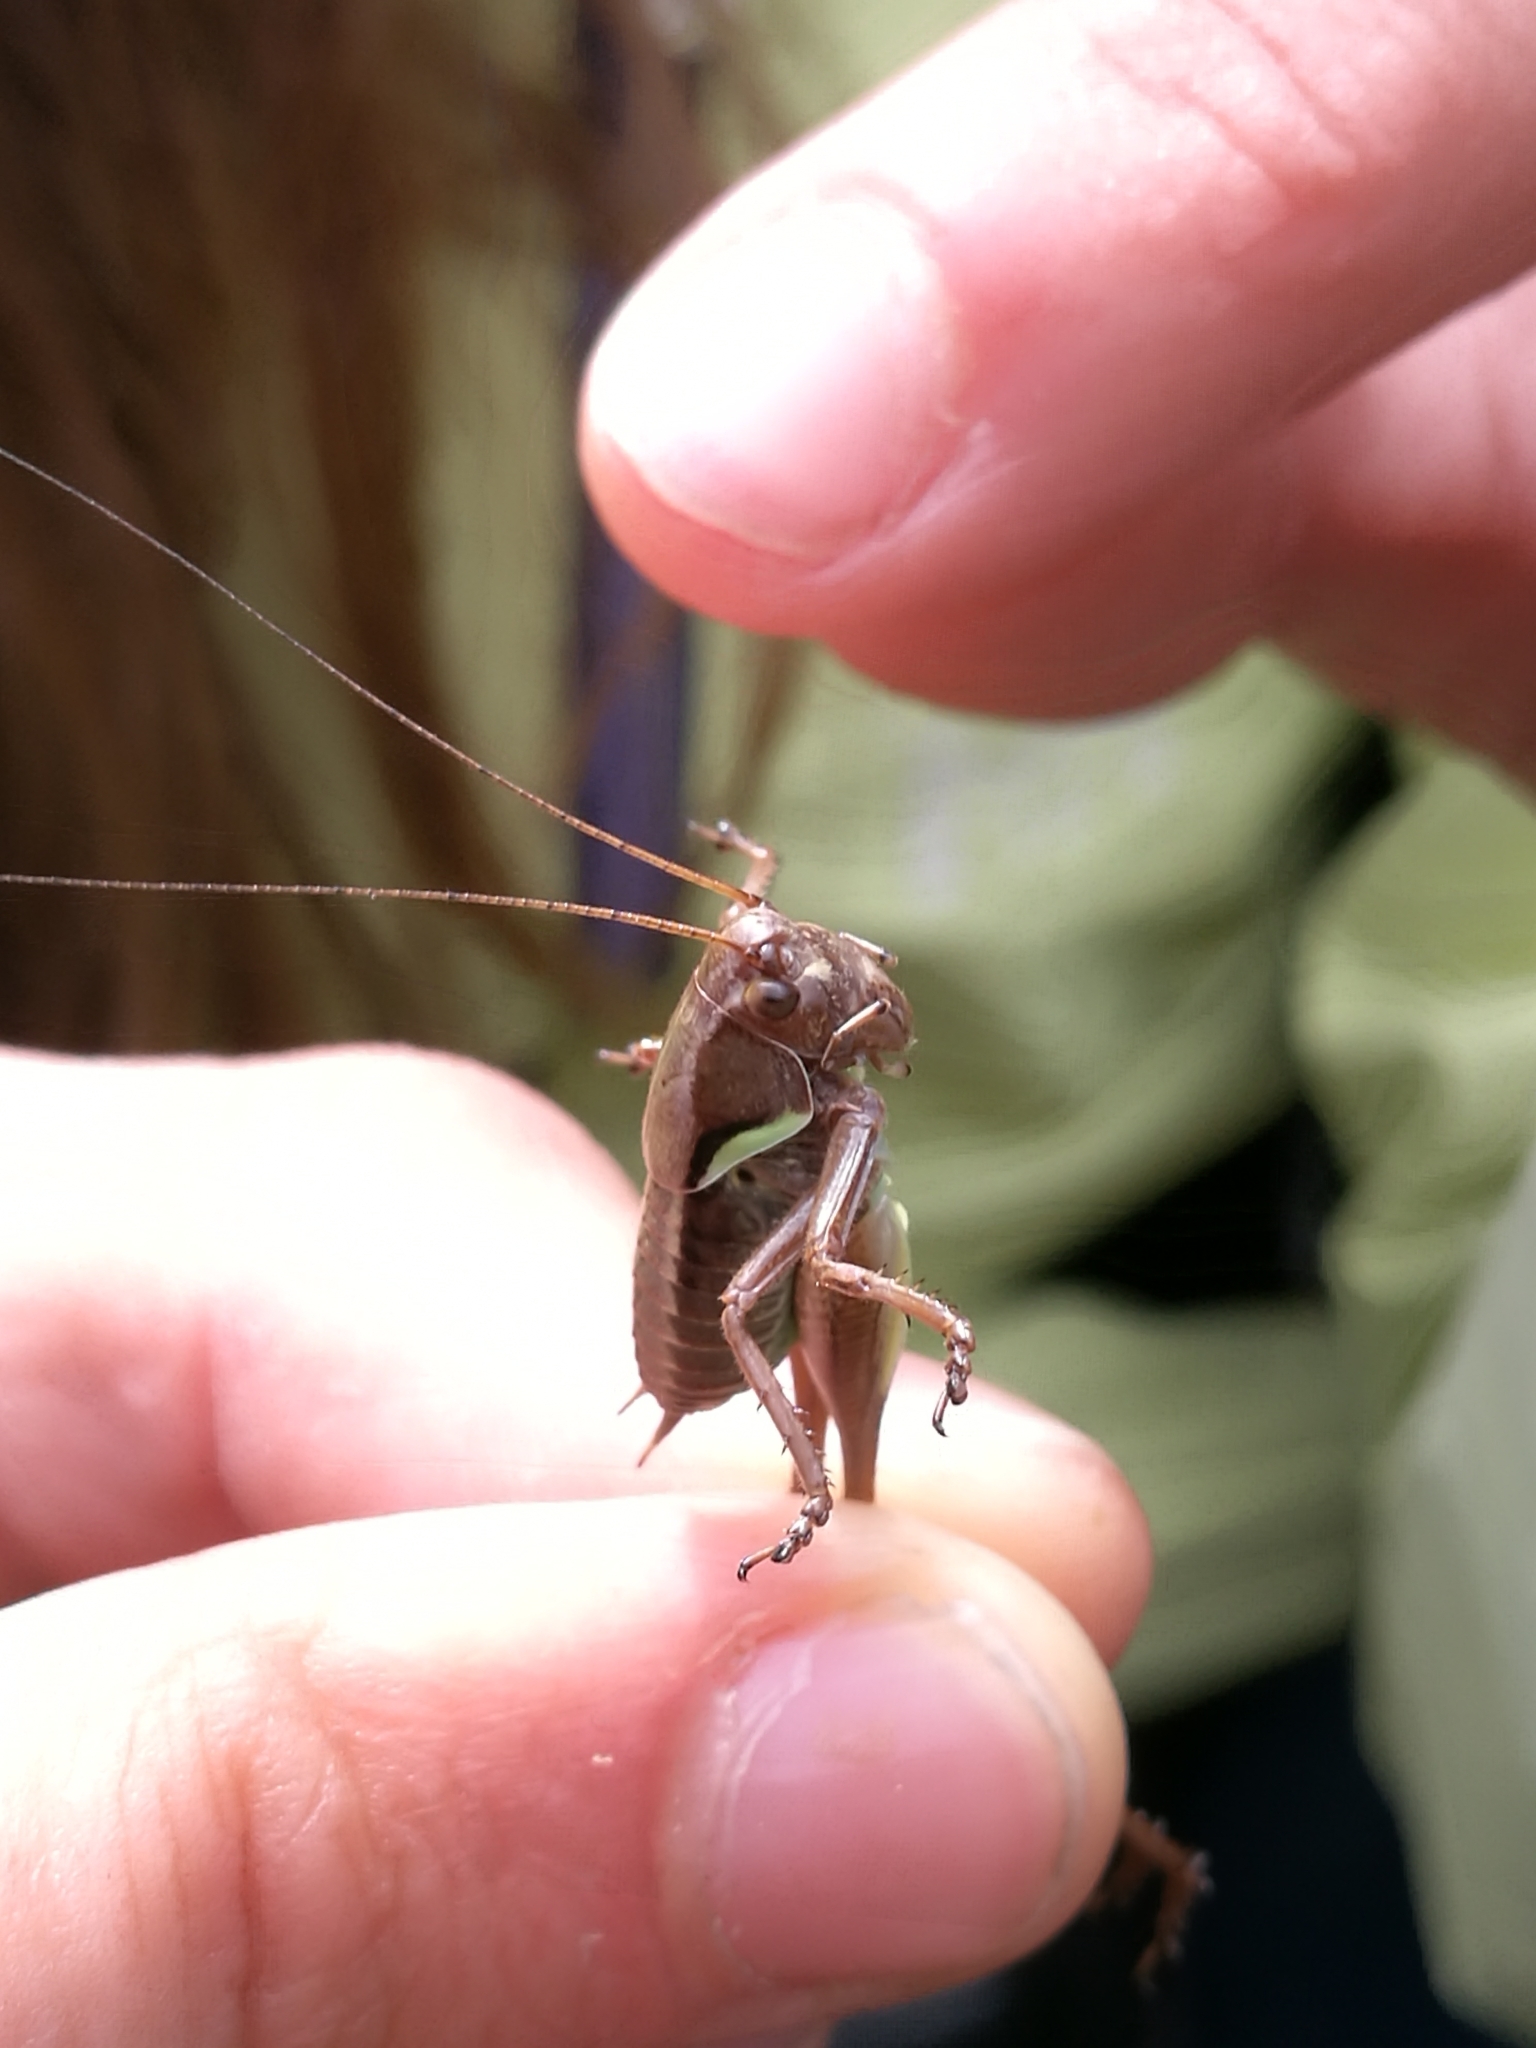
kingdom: Animalia
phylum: Arthropoda
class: Insecta
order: Orthoptera
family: Tettigoniidae
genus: Pholidoptera
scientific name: Pholidoptera aptera
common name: Alpine dark bush-cricket
